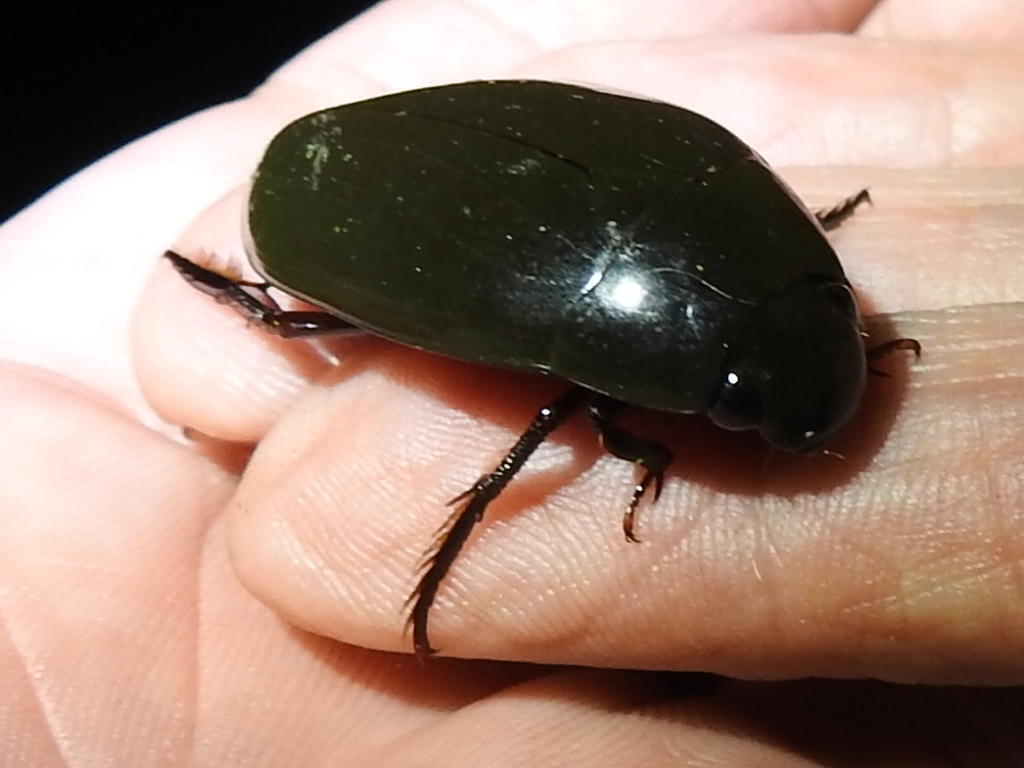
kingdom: Animalia
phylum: Arthropoda
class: Insecta
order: Coleoptera
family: Hydrophilidae
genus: Hydrophilus
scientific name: Hydrophilus triangularis
